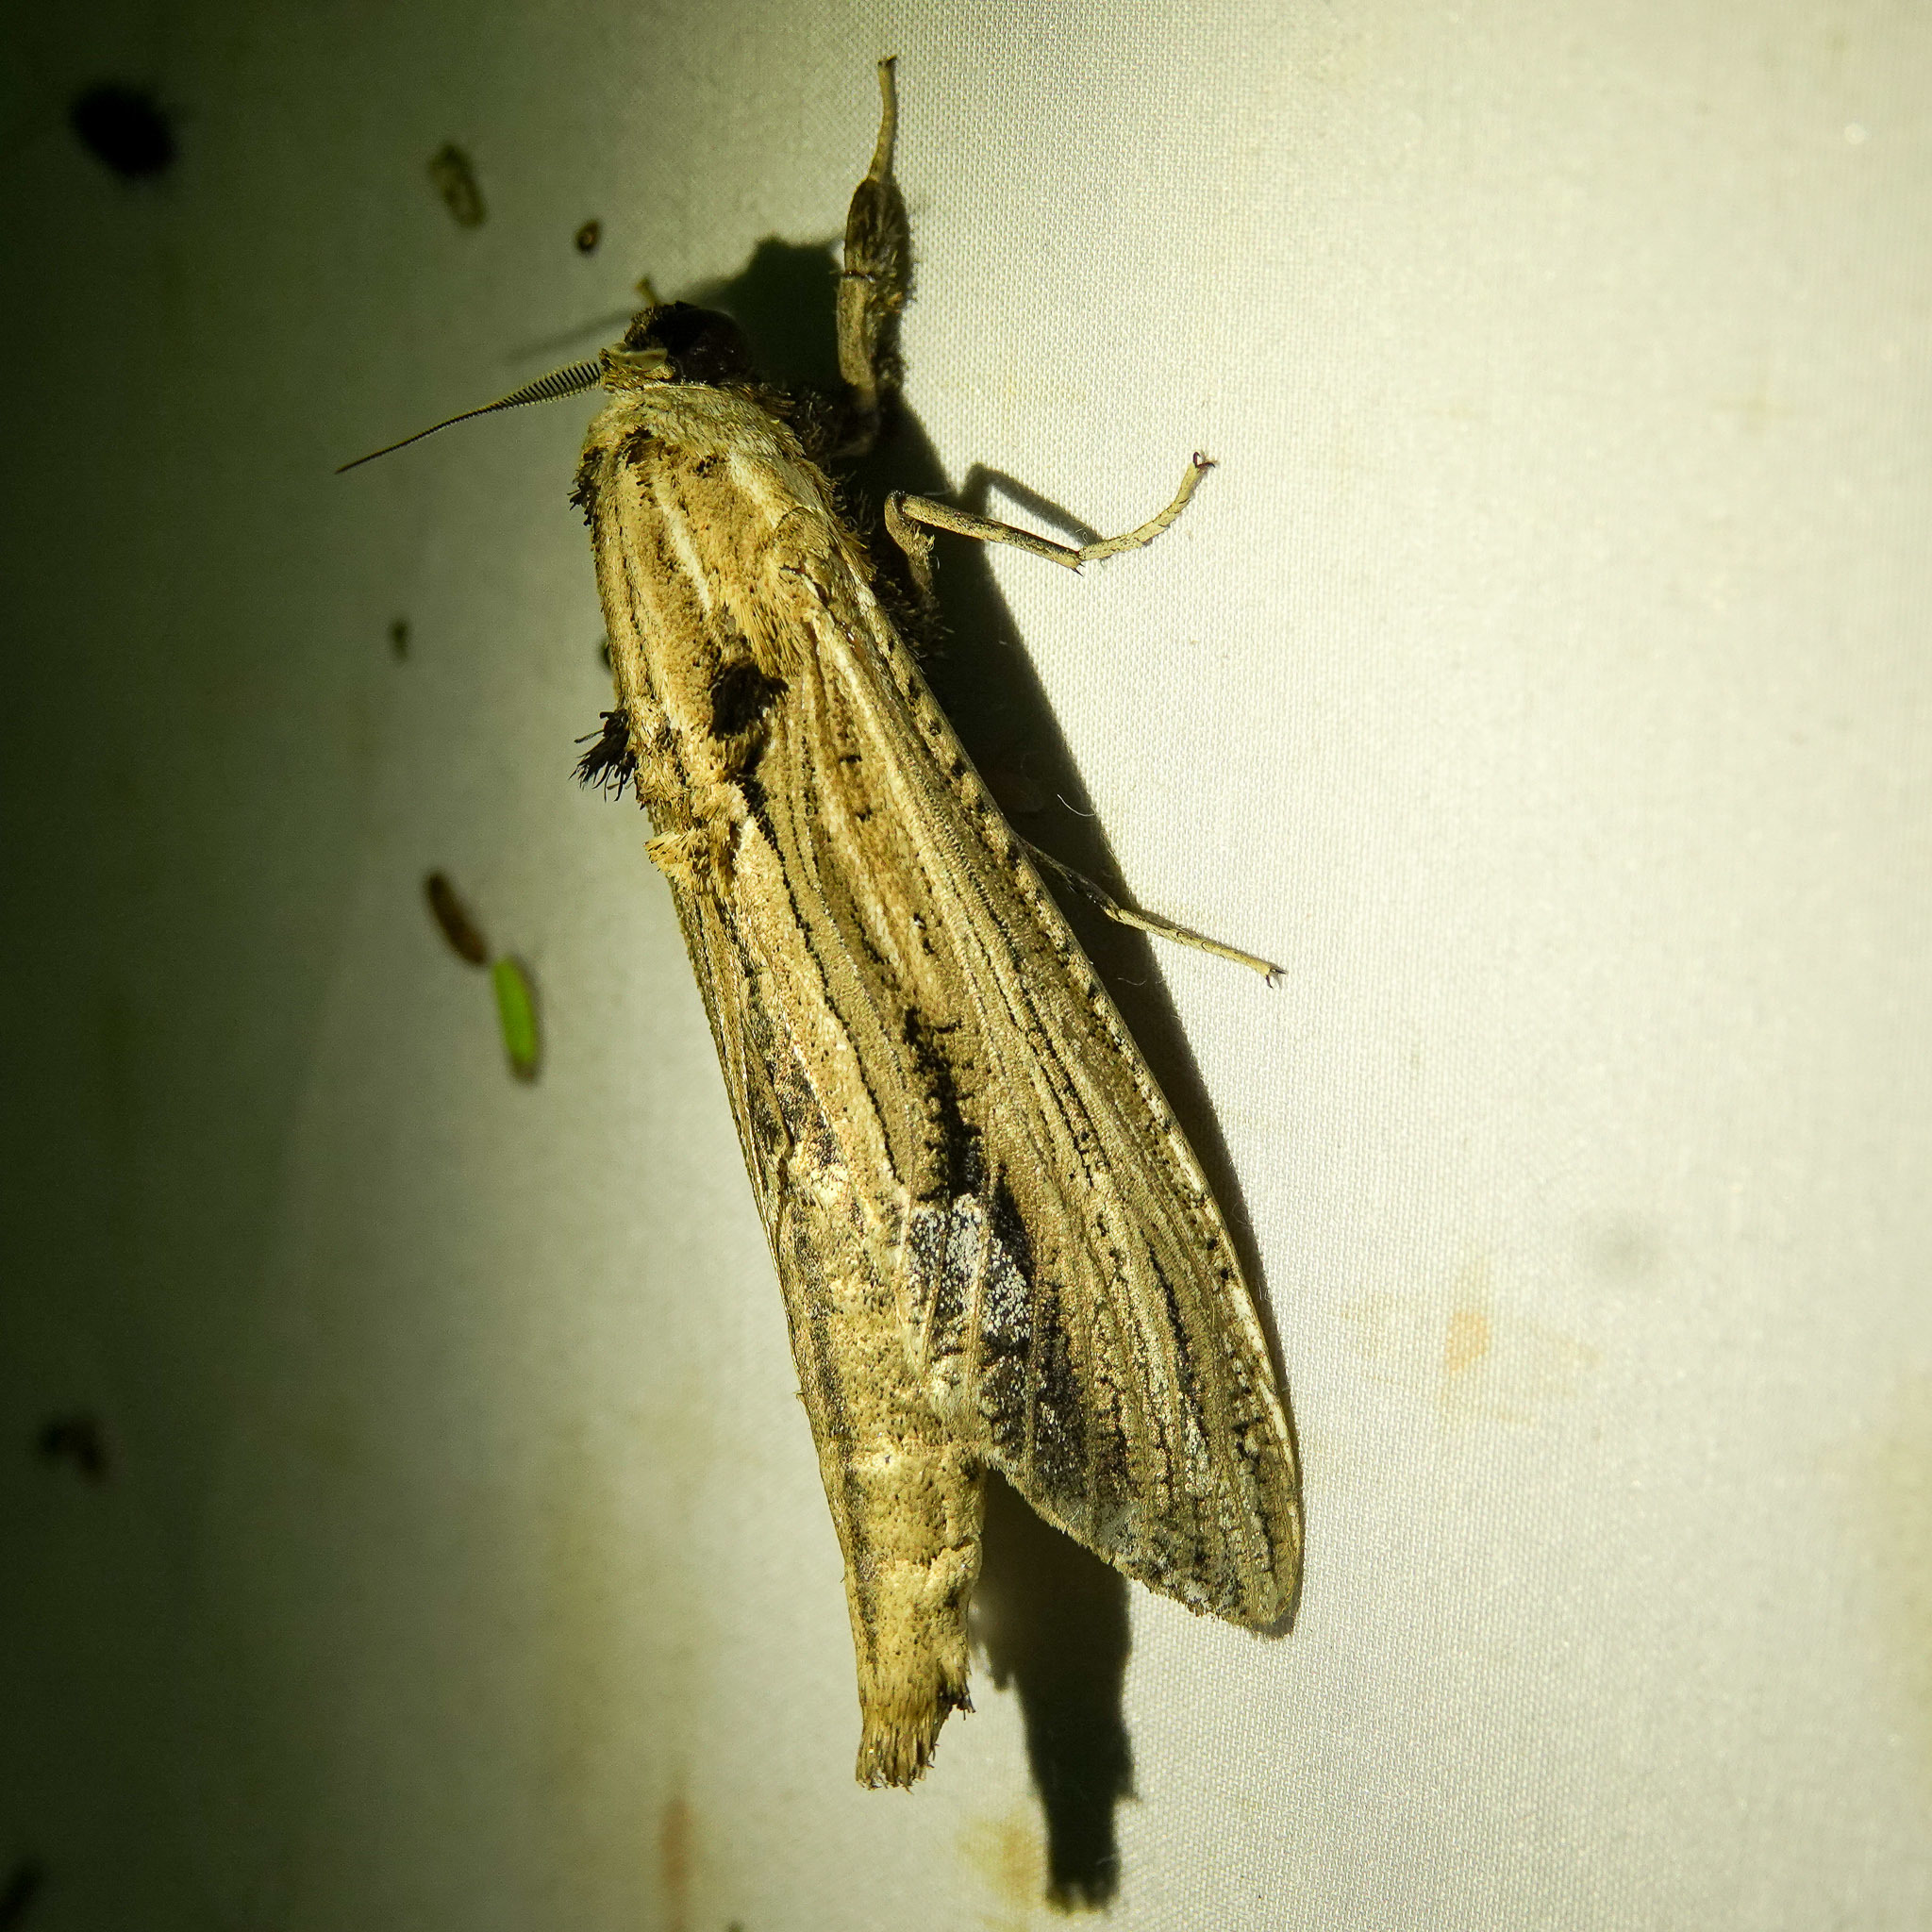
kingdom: Animalia
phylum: Arthropoda
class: Insecta
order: Lepidoptera
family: Cossidae
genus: Duomitus
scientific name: Duomitus ceramicus
